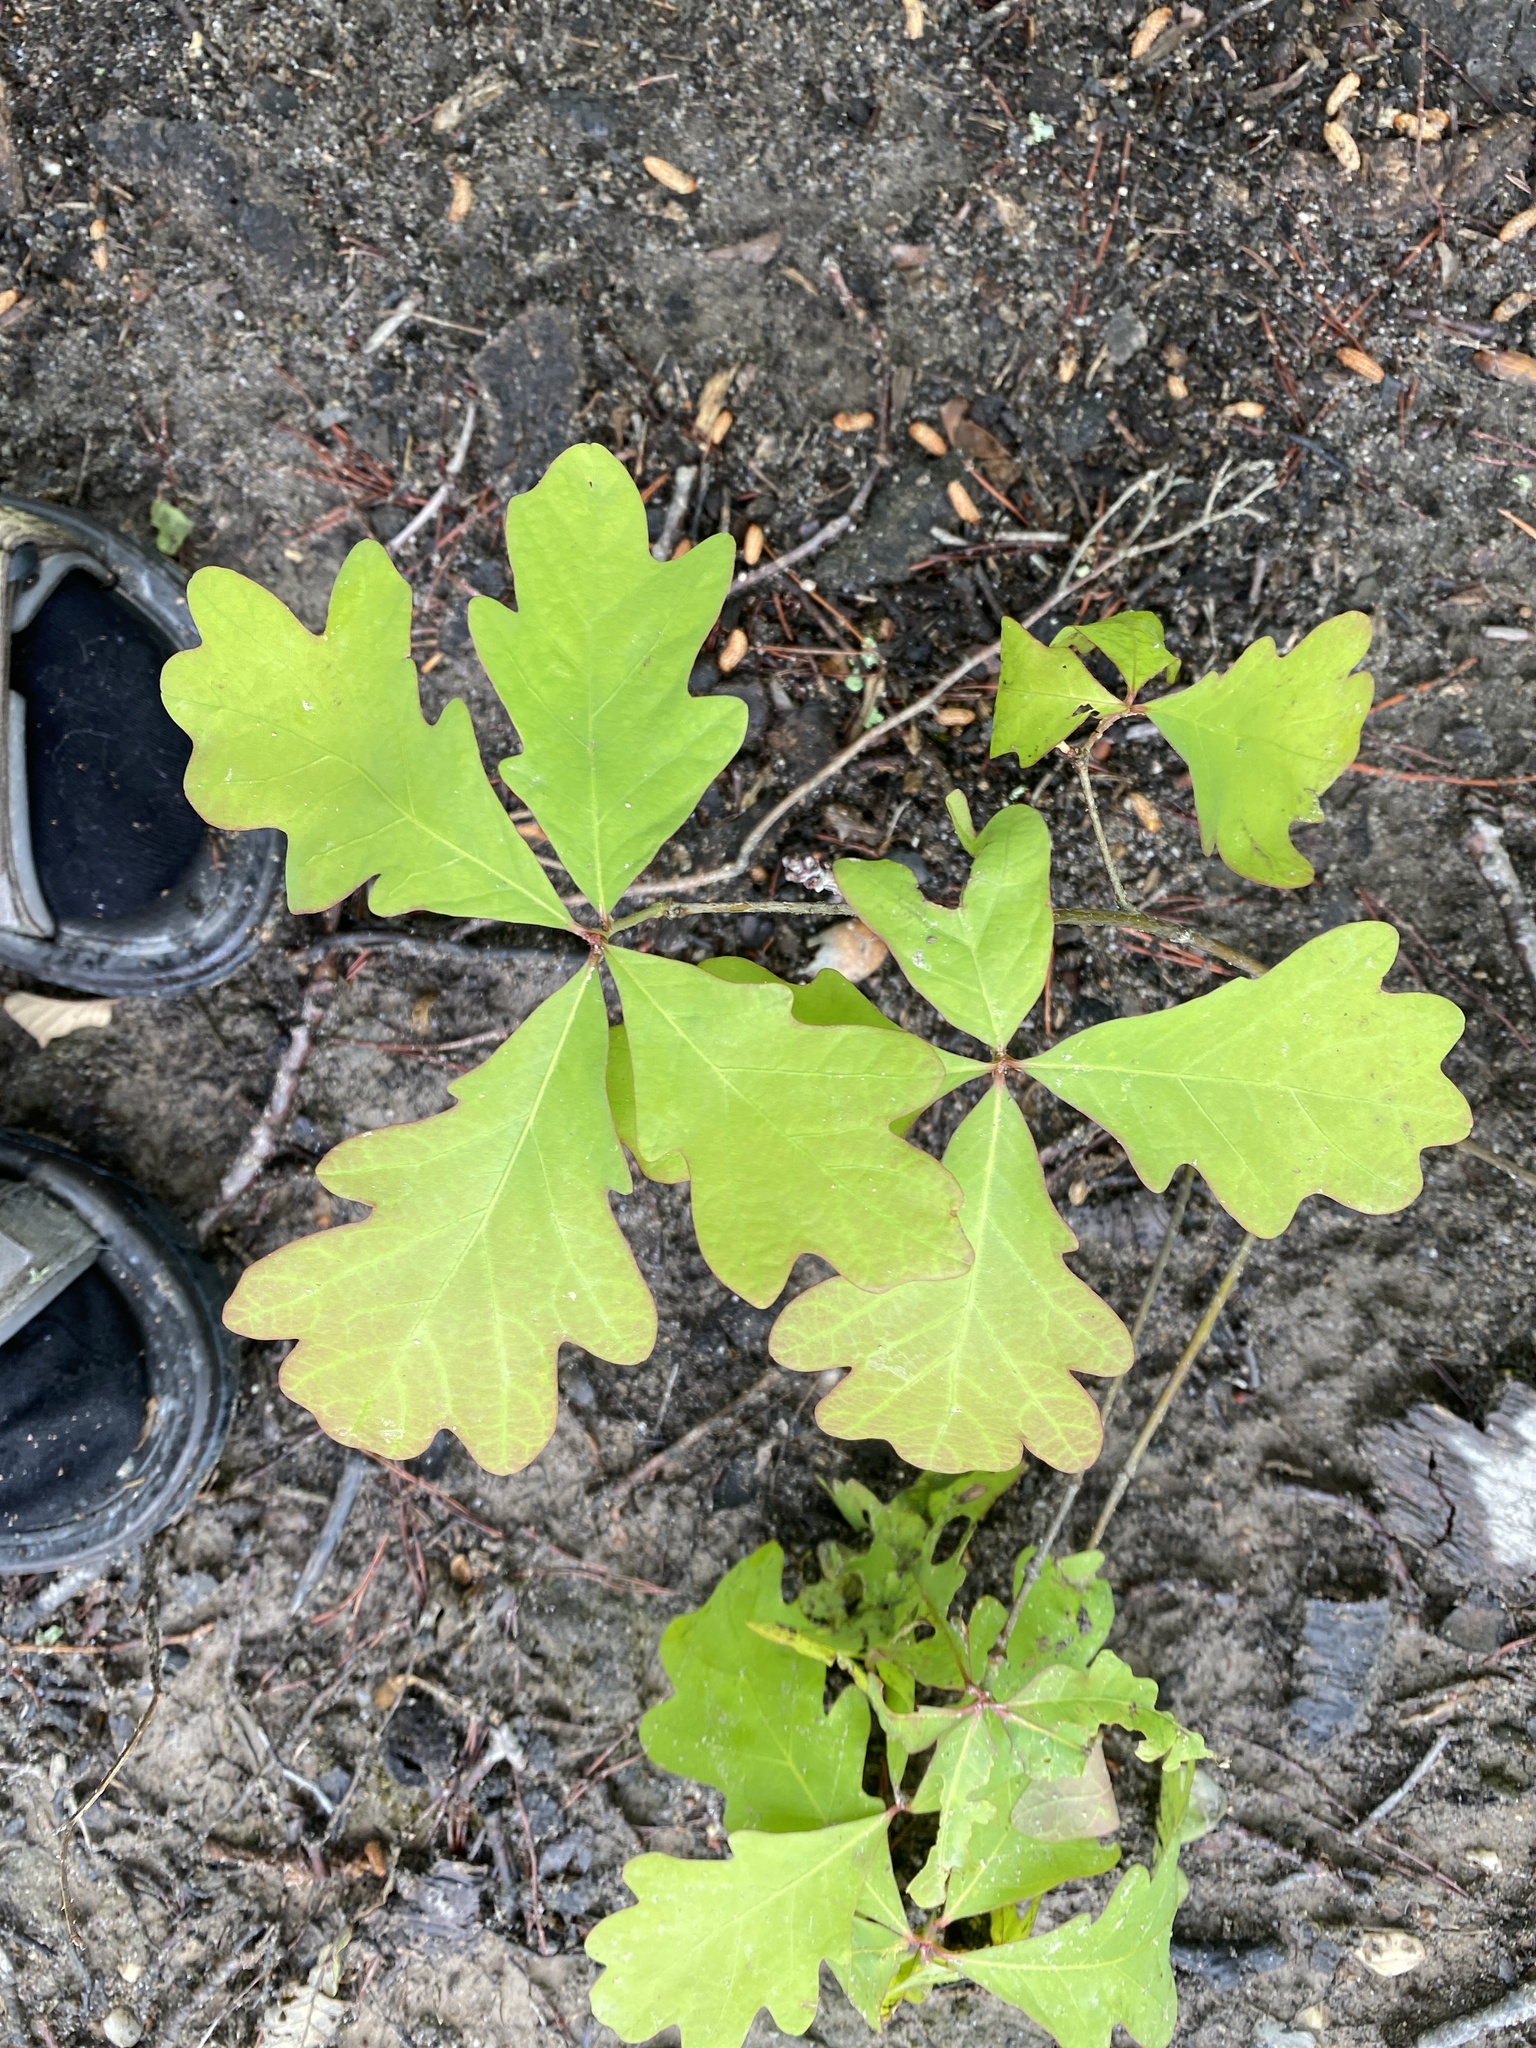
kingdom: Plantae
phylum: Tracheophyta
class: Magnoliopsida
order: Fagales
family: Fagaceae
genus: Quercus
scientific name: Quercus alba
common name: White oak
